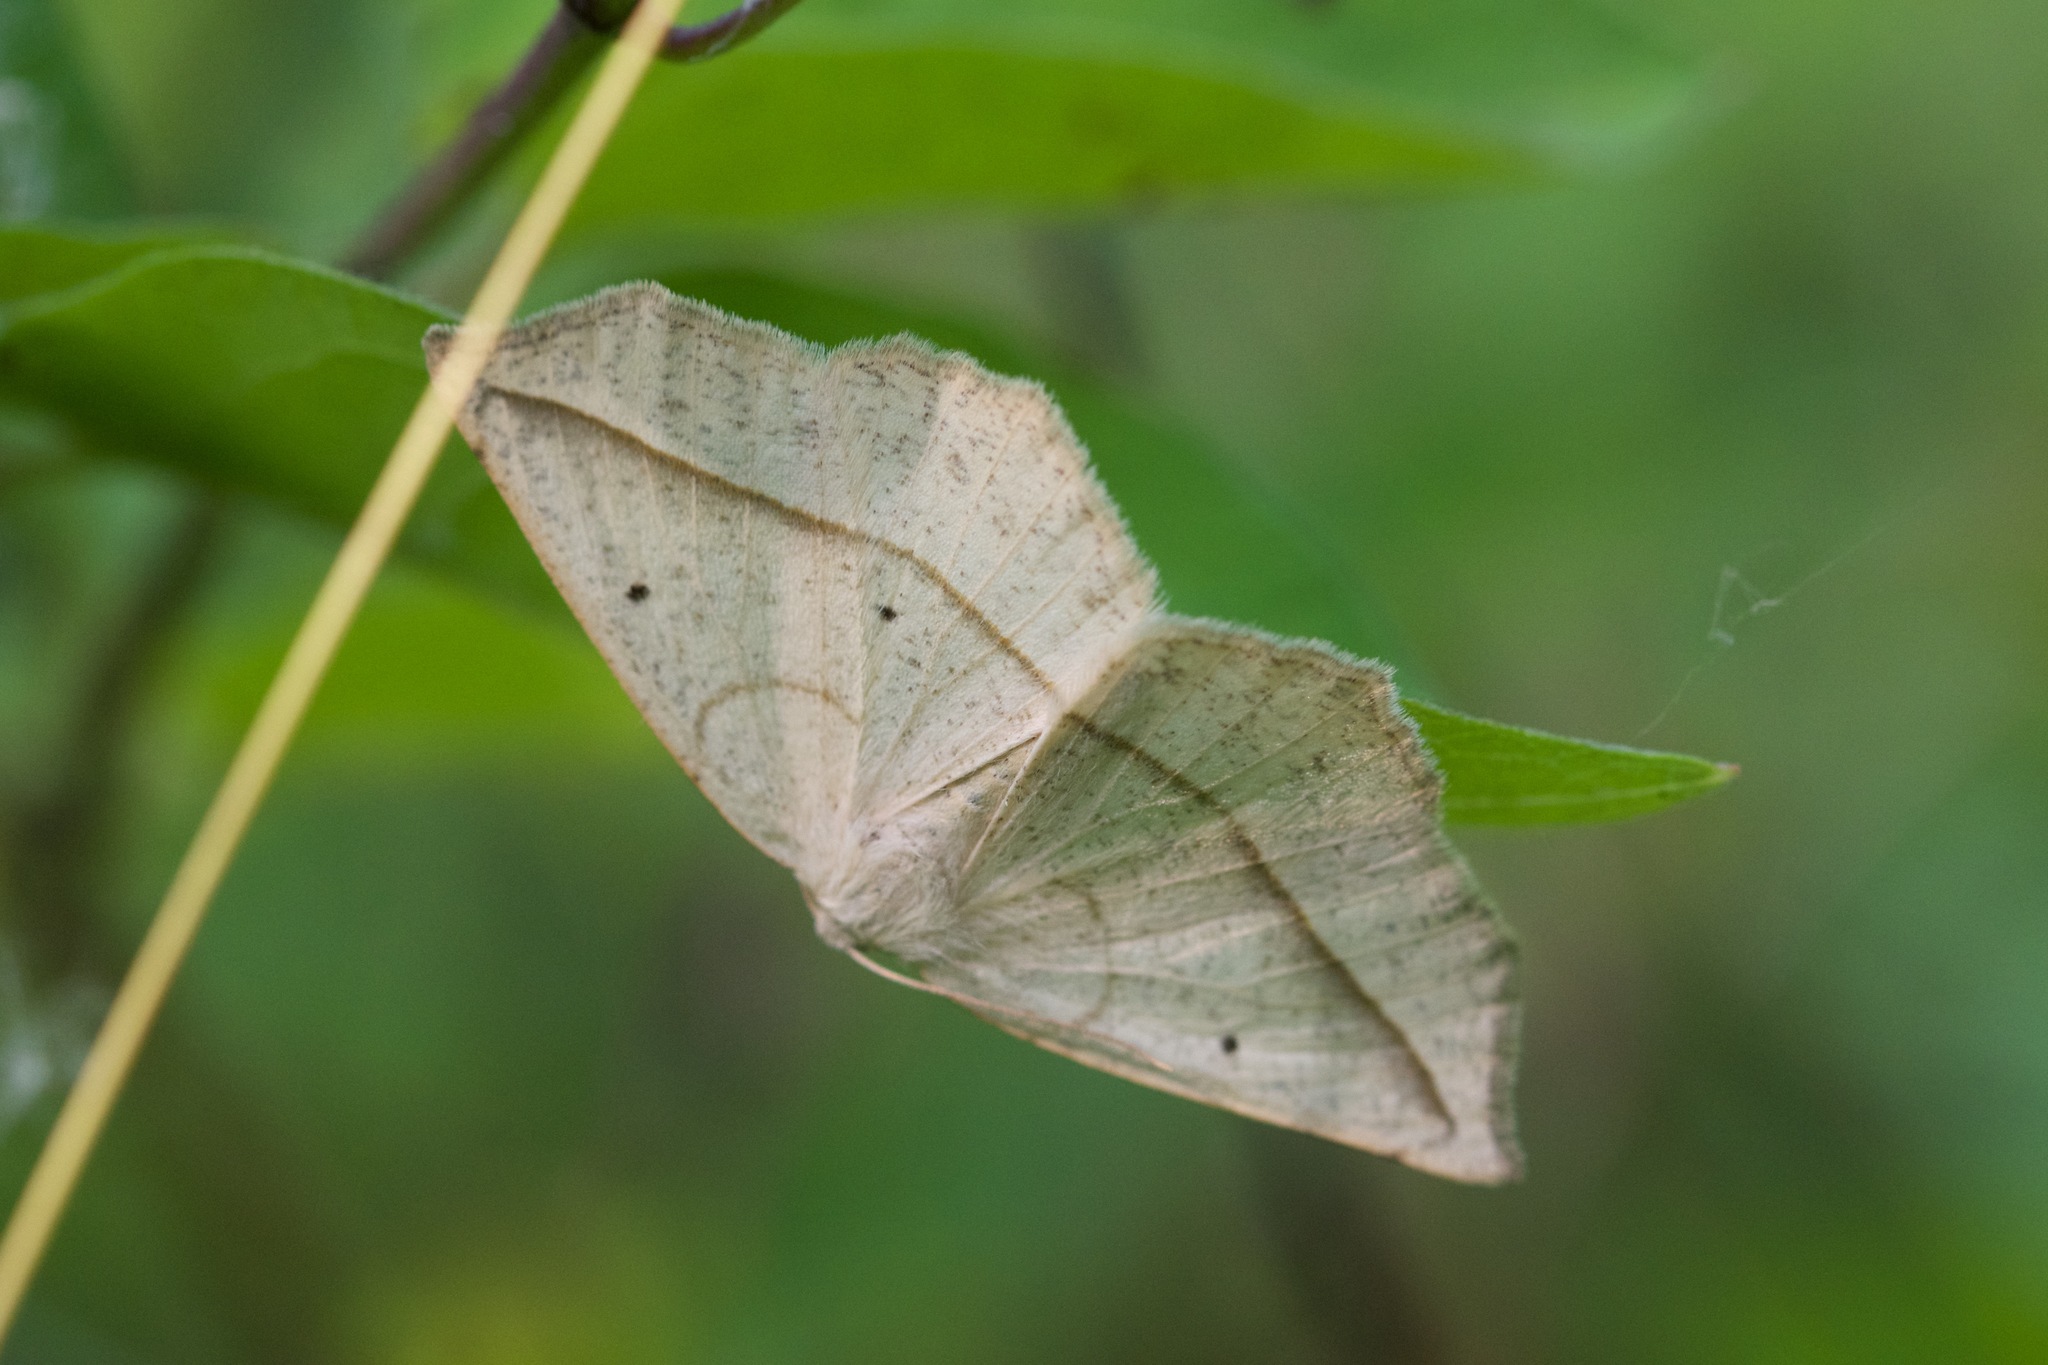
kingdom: Animalia
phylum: Arthropoda
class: Insecta
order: Lepidoptera
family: Geometridae
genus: Eusarca
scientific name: Eusarca confusaria
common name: Confused eusarca
